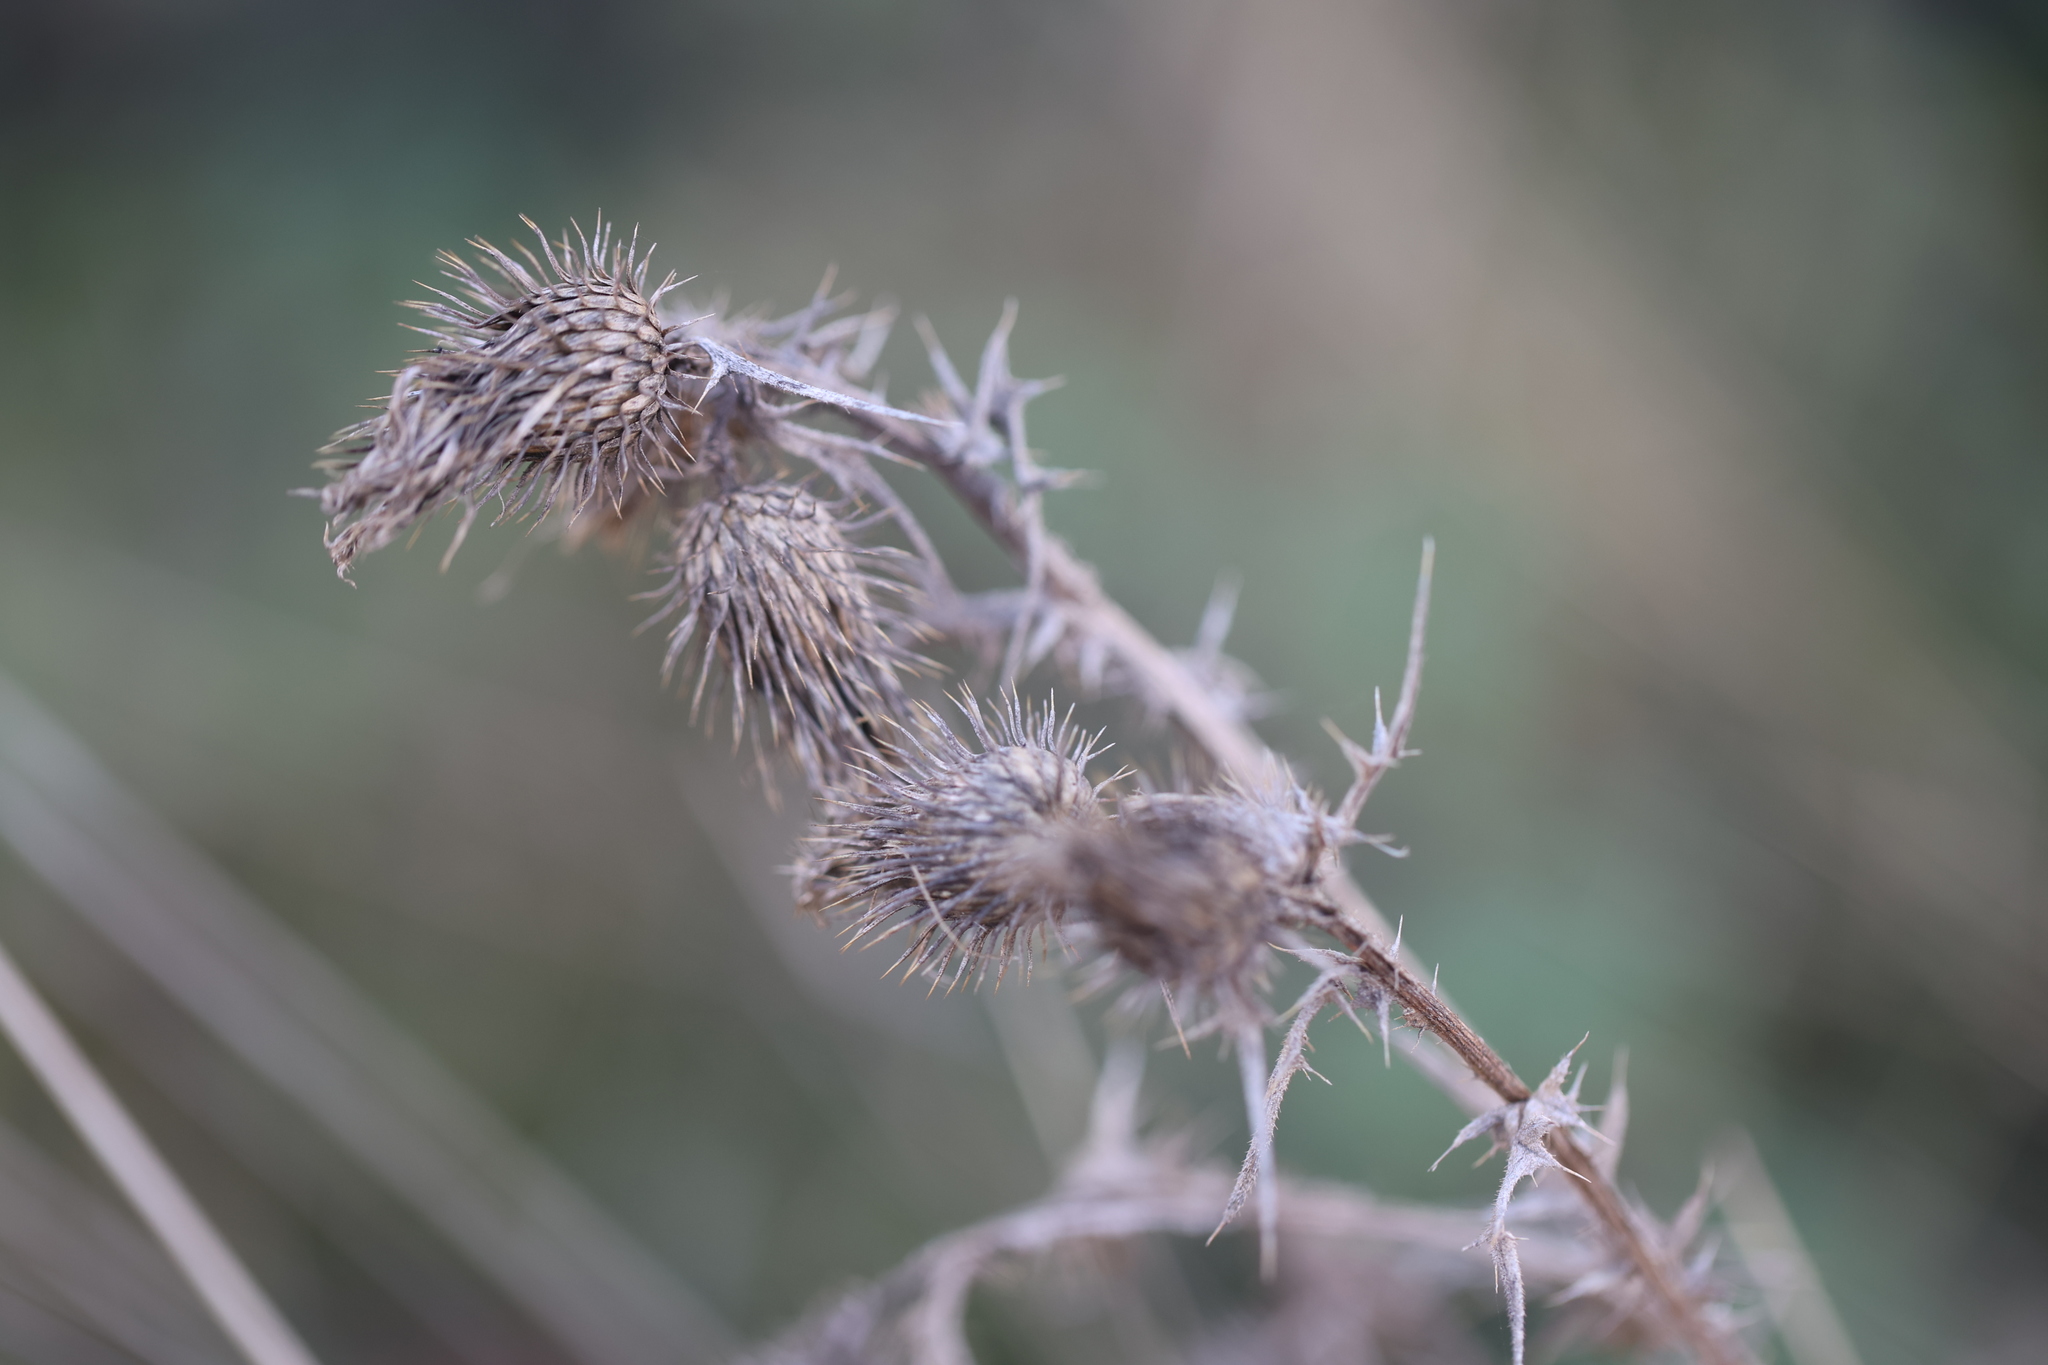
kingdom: Plantae
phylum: Tracheophyta
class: Magnoliopsida
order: Asterales
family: Asteraceae
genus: Cirsium
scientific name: Cirsium vulgare
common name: Bull thistle
